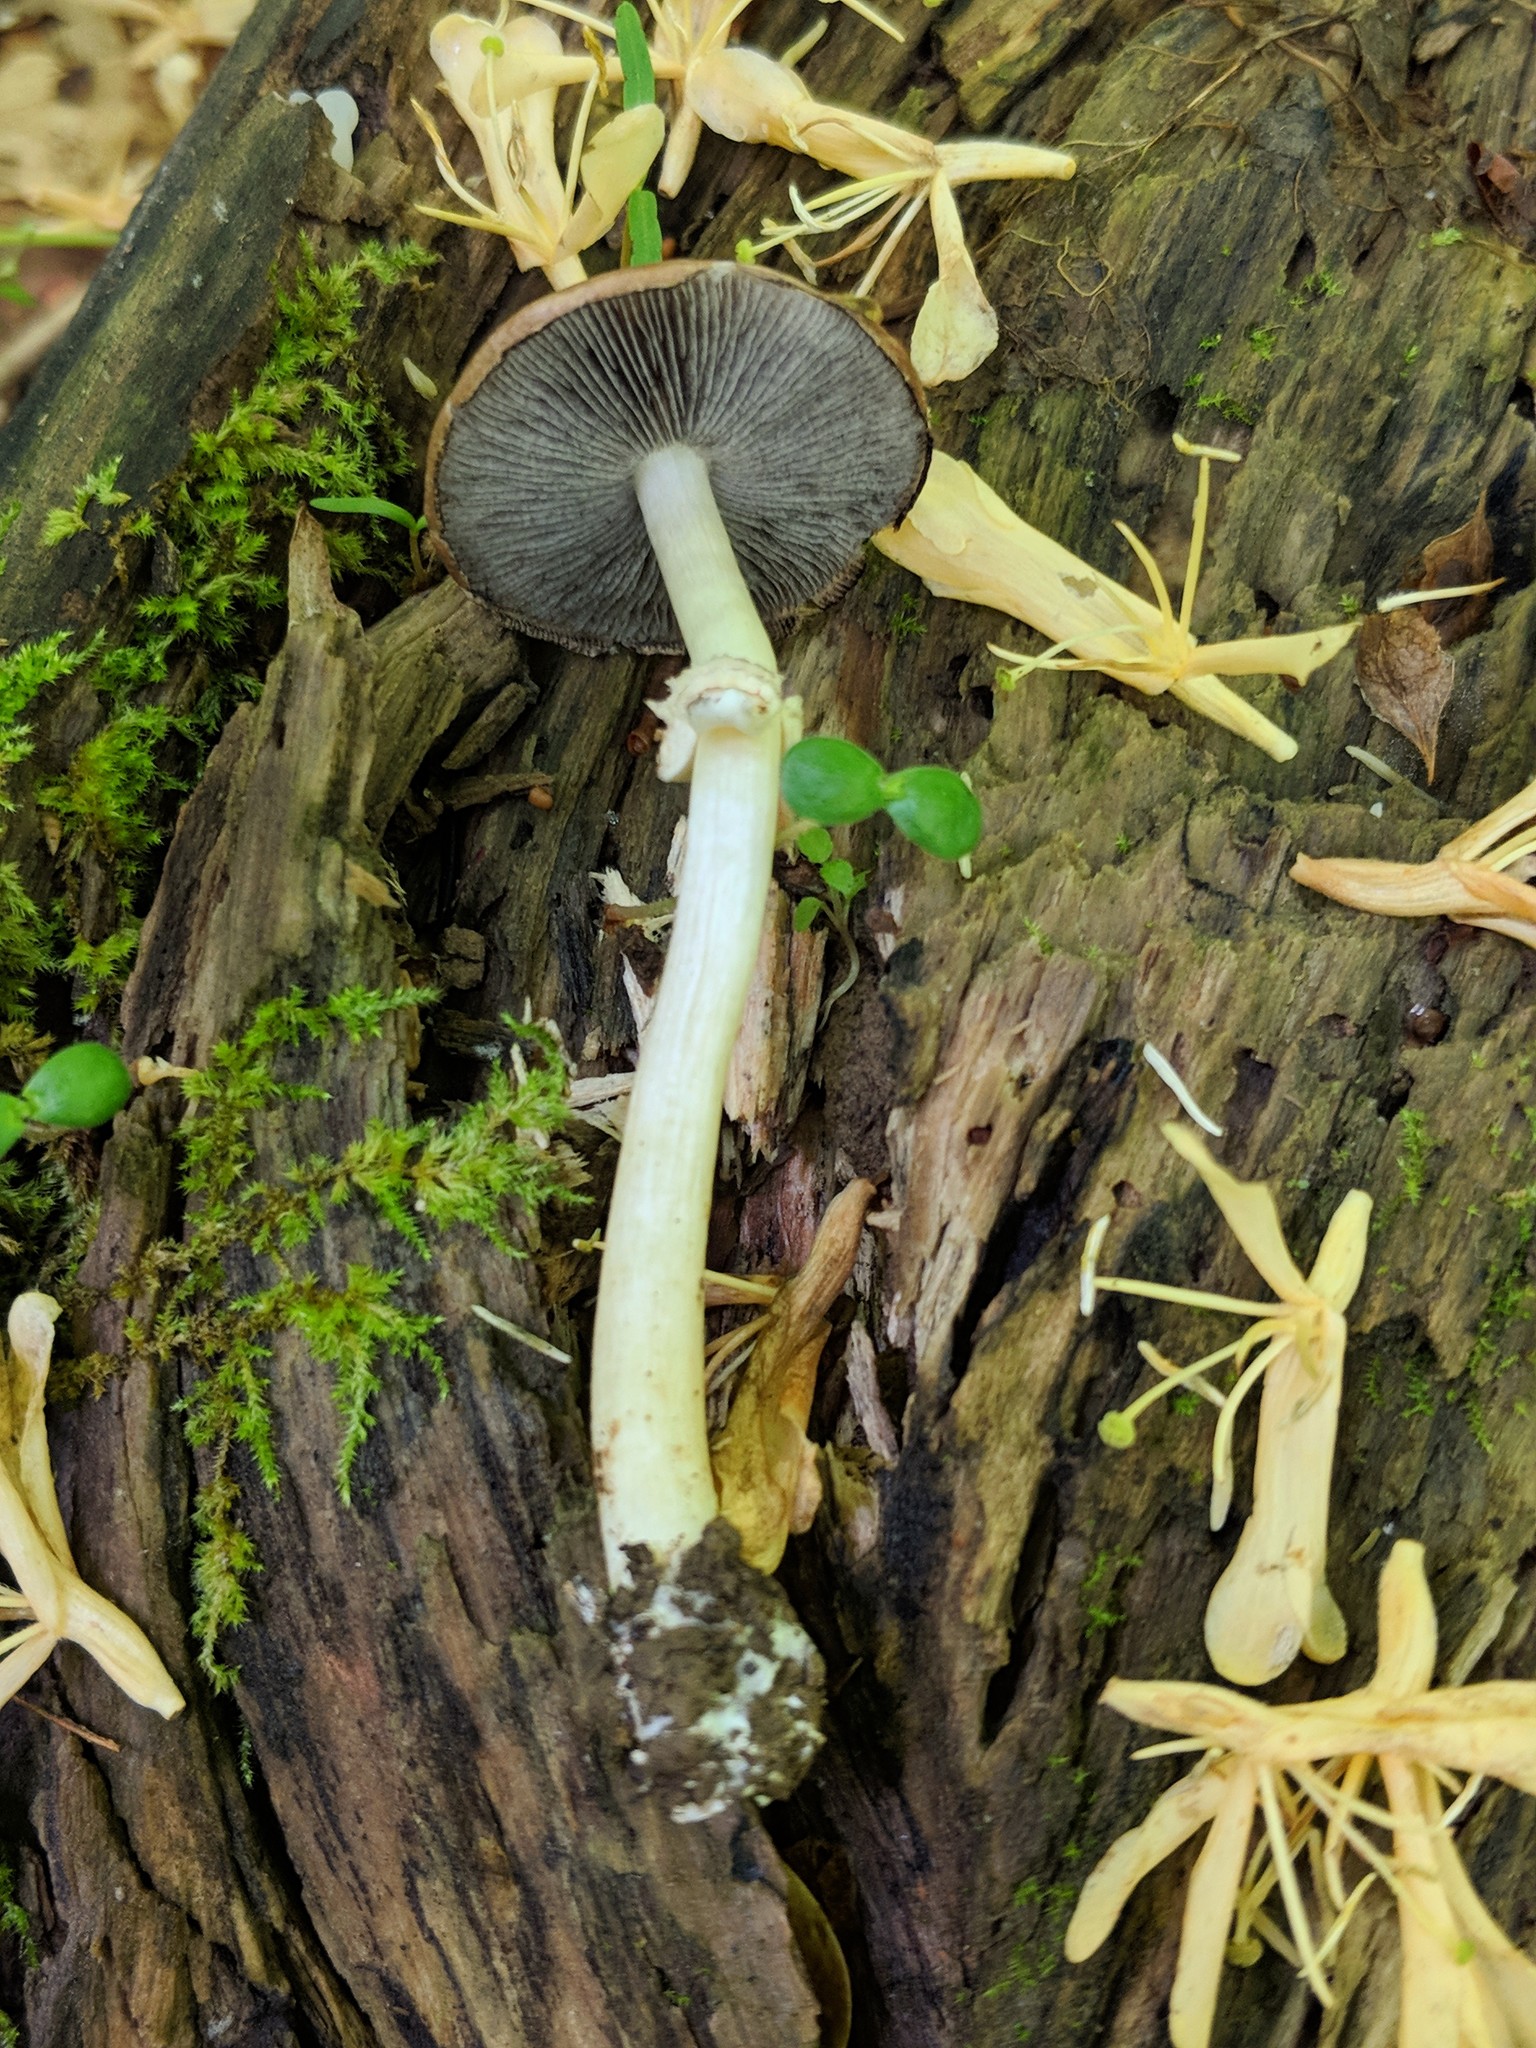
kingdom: Fungi
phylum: Basidiomycota
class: Agaricomycetes
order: Agaricales
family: Strophariaceae
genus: Stropharia
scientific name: Stropharia rugosoannulata
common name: Wine roundhead
